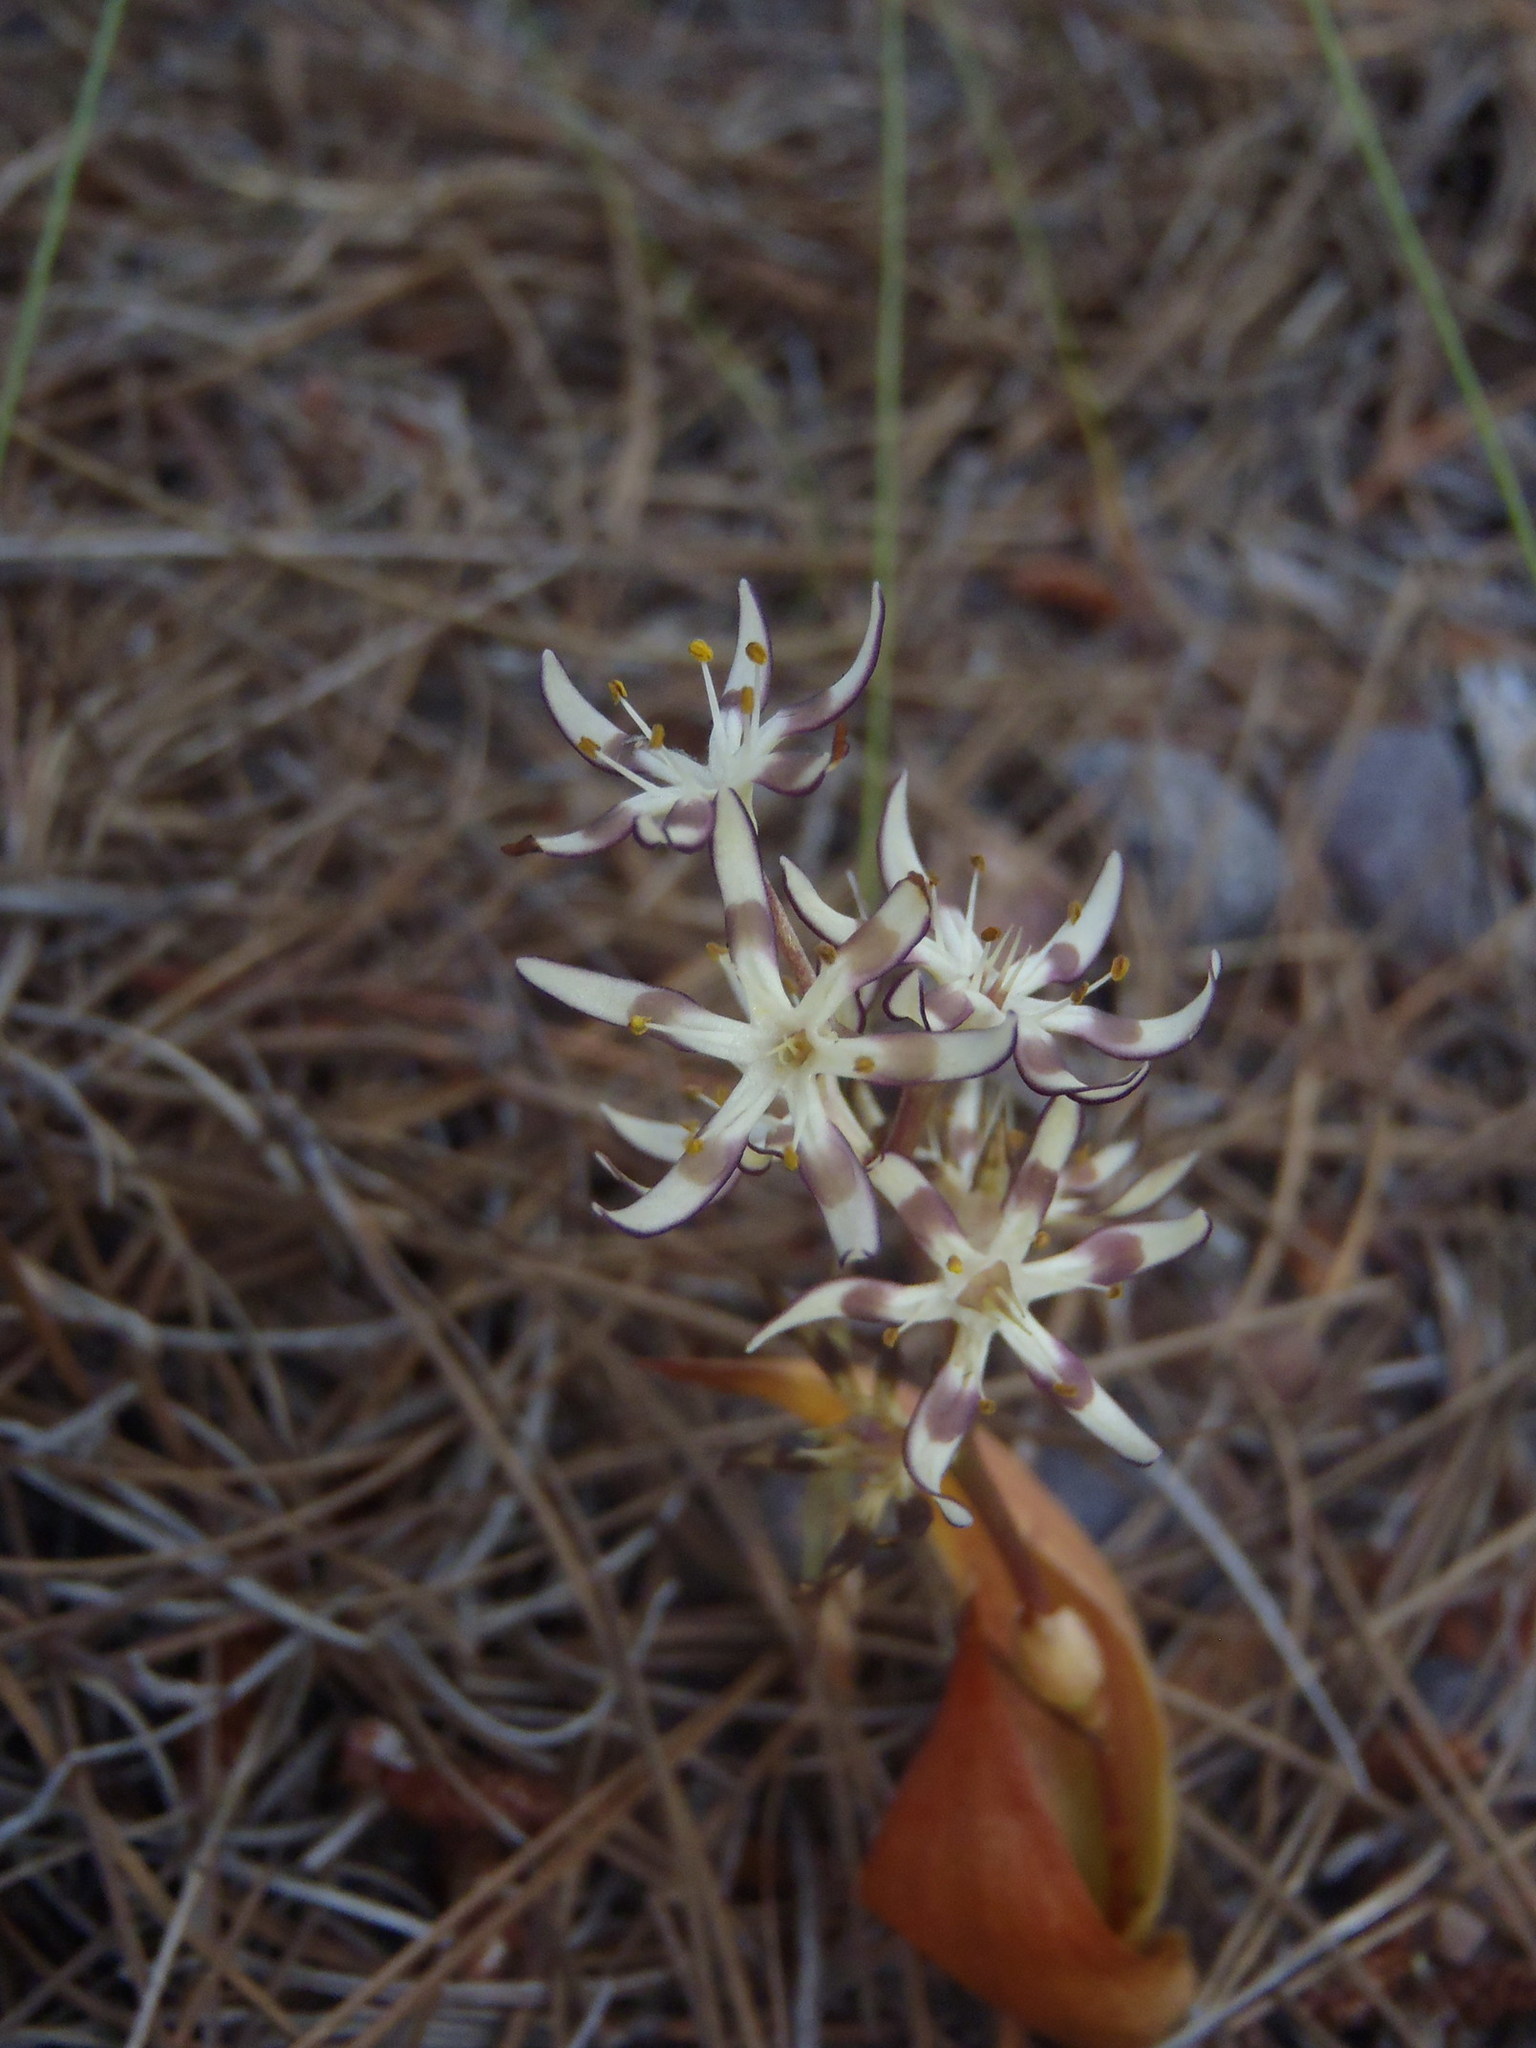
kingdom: Plantae
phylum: Tracheophyta
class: Liliopsida
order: Liliales
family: Colchicaceae
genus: Wurmbea
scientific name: Wurmbea variabilis
